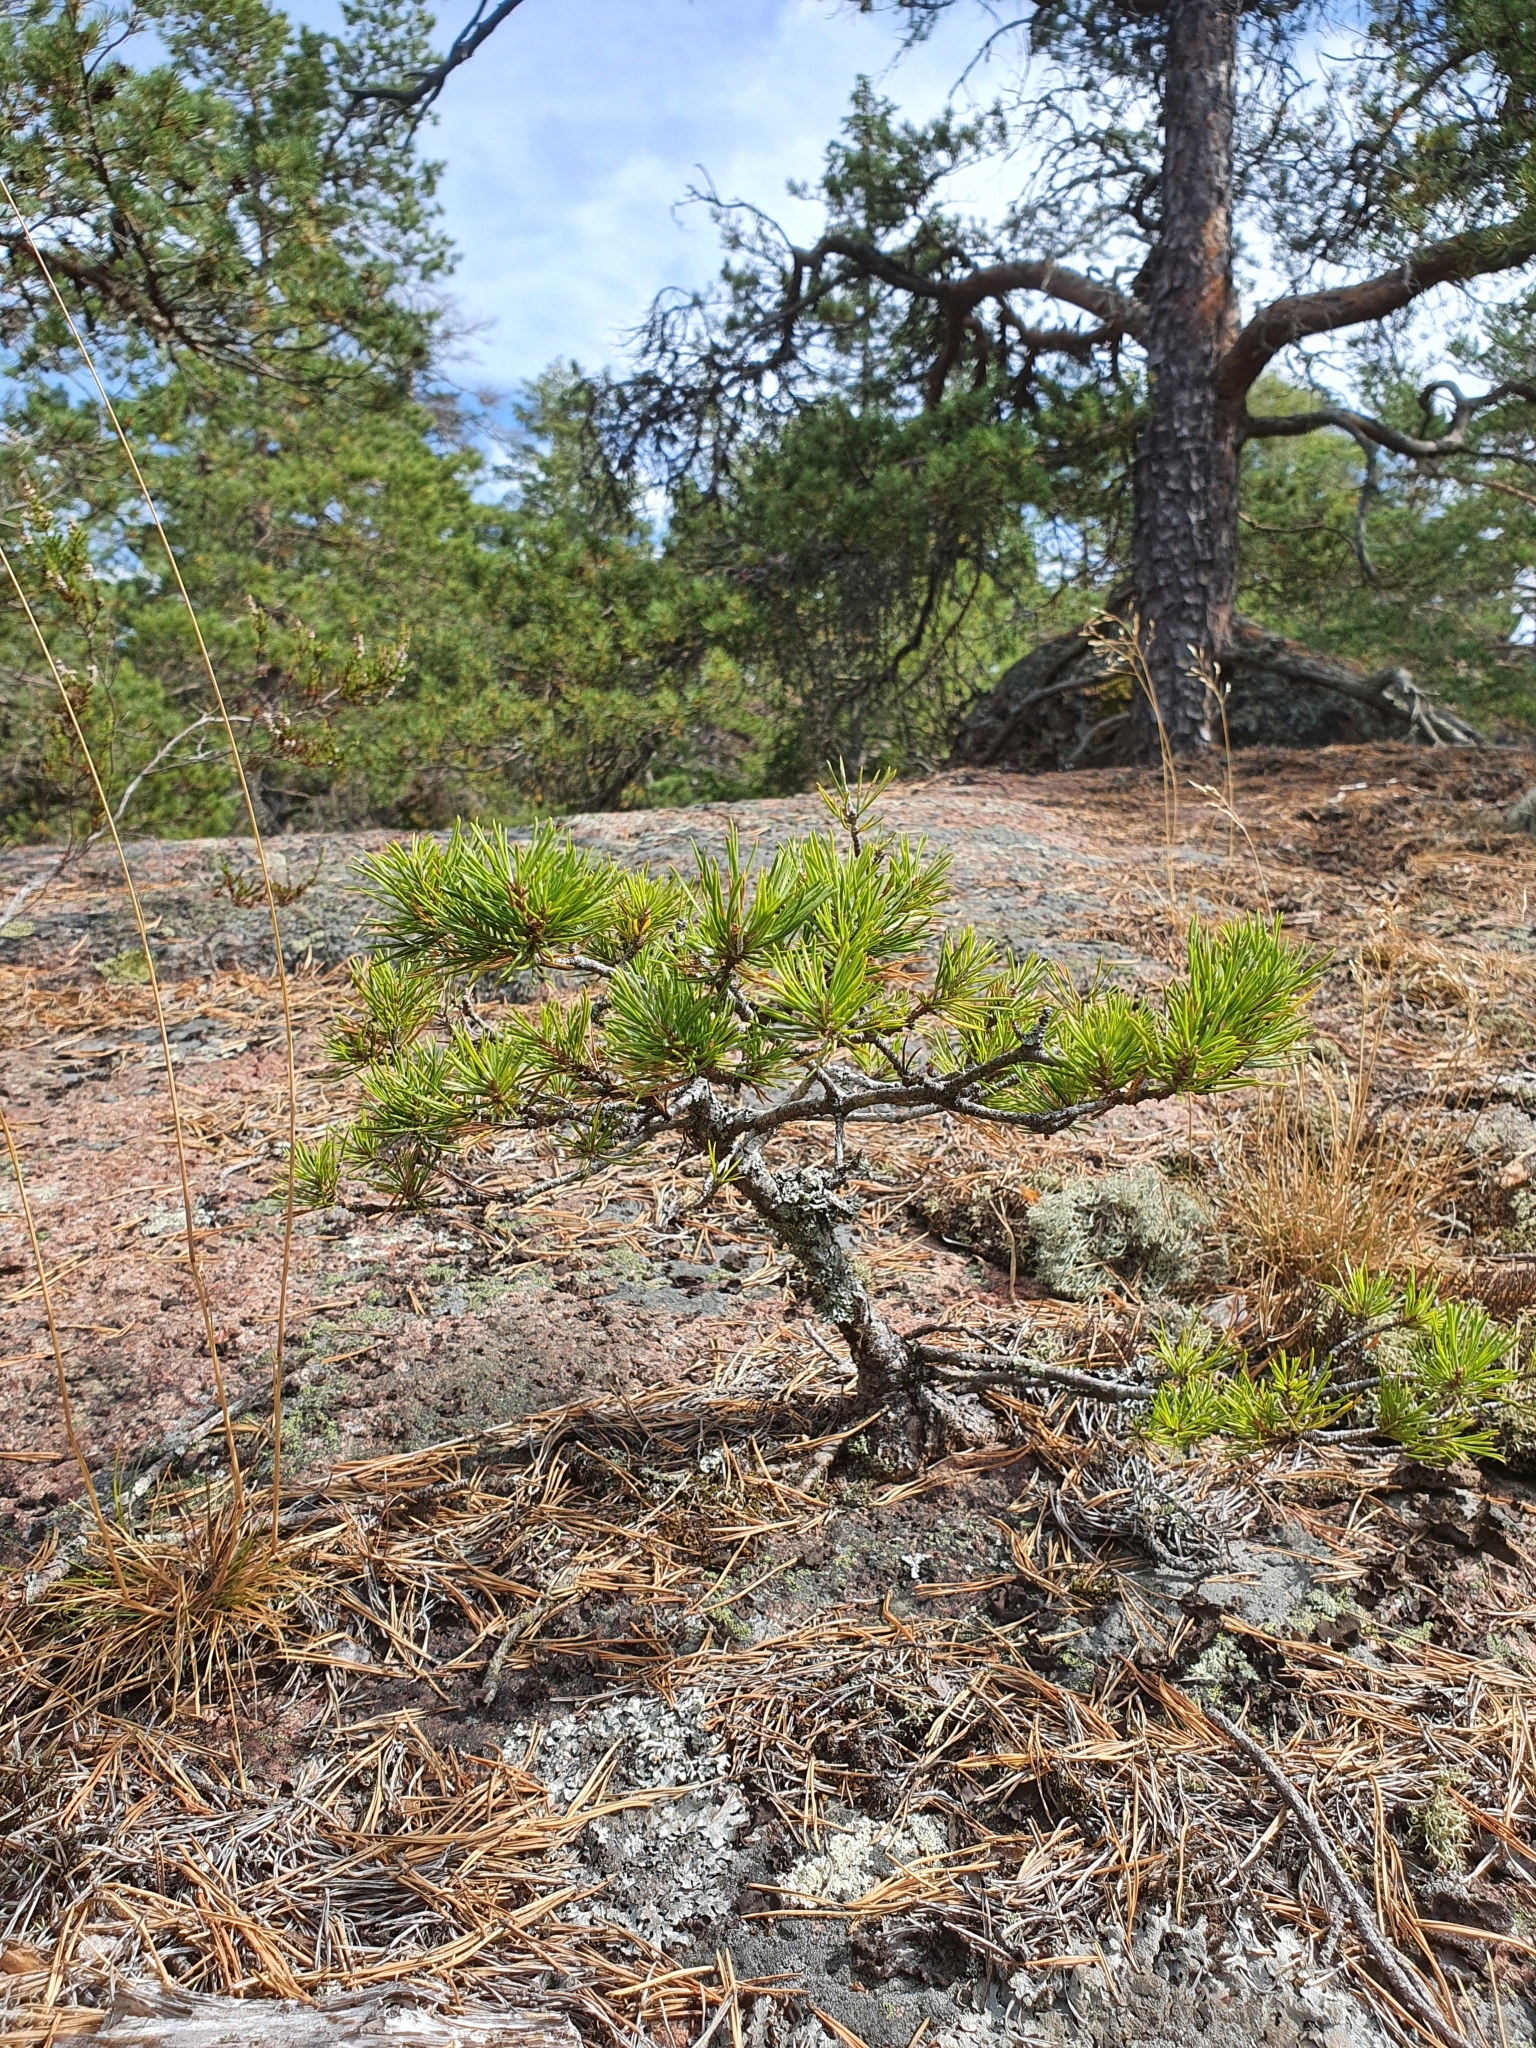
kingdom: Plantae
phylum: Tracheophyta
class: Pinopsida
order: Pinales
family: Pinaceae
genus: Pinus
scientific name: Pinus sylvestris
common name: Scots pine
